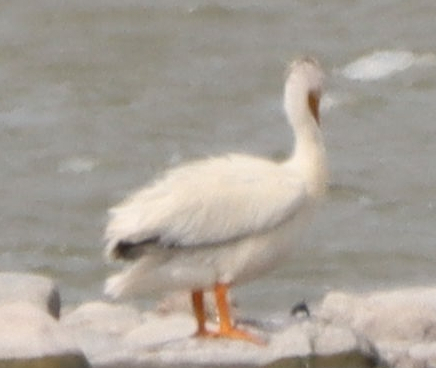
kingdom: Animalia
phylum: Chordata
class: Aves
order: Pelecaniformes
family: Pelecanidae
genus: Pelecanus
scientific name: Pelecanus erythrorhynchos
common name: American white pelican
